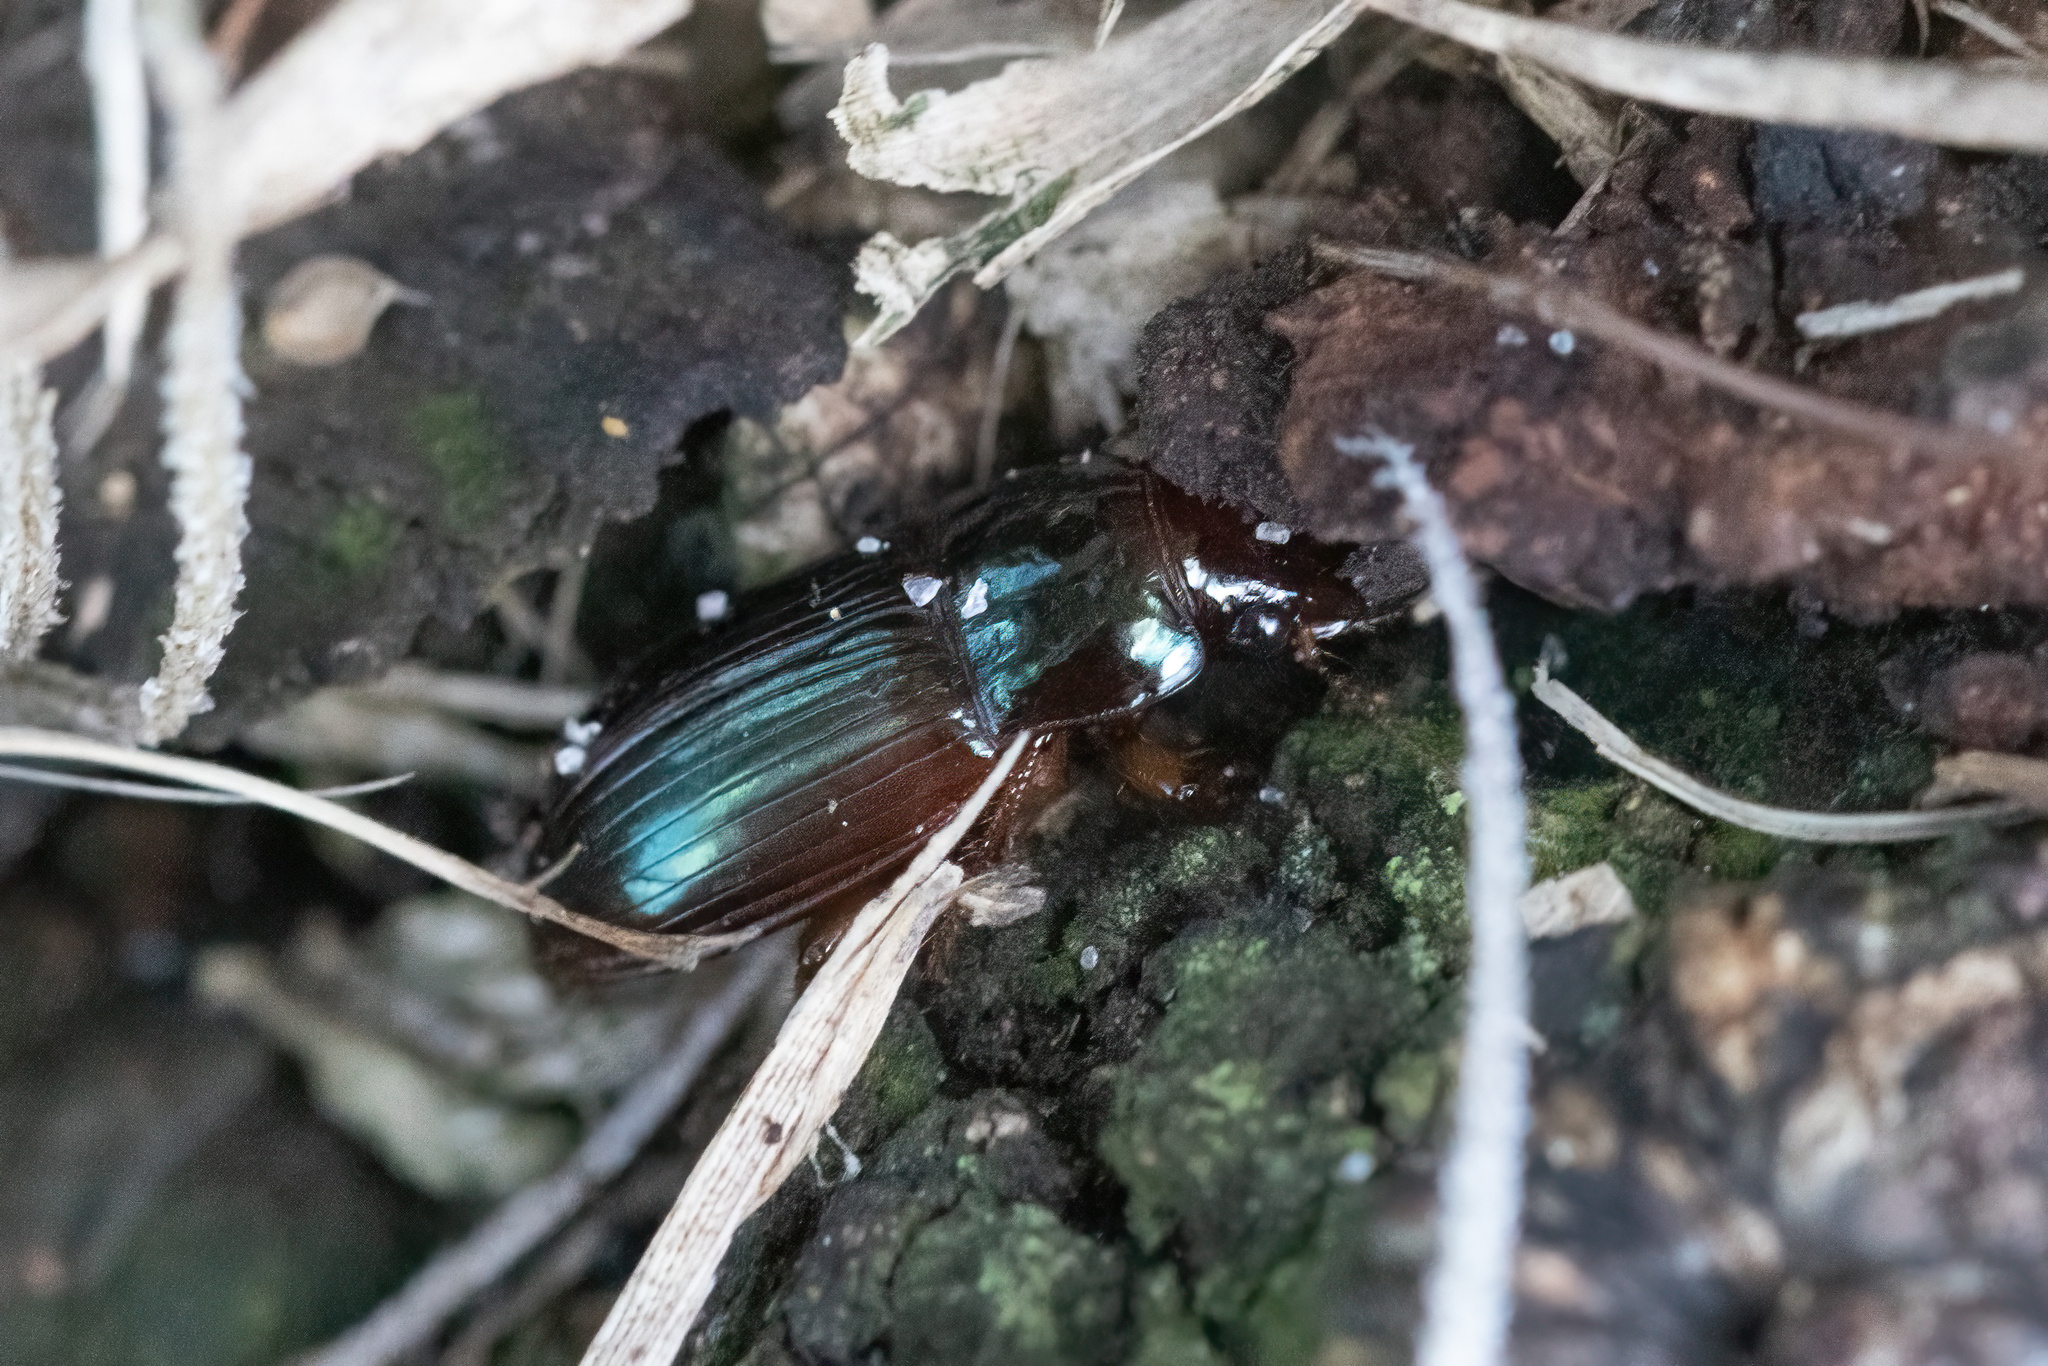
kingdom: Animalia
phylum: Arthropoda
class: Insecta
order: Coleoptera
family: Carabidae
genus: Harpalus
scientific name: Harpalus gravis
